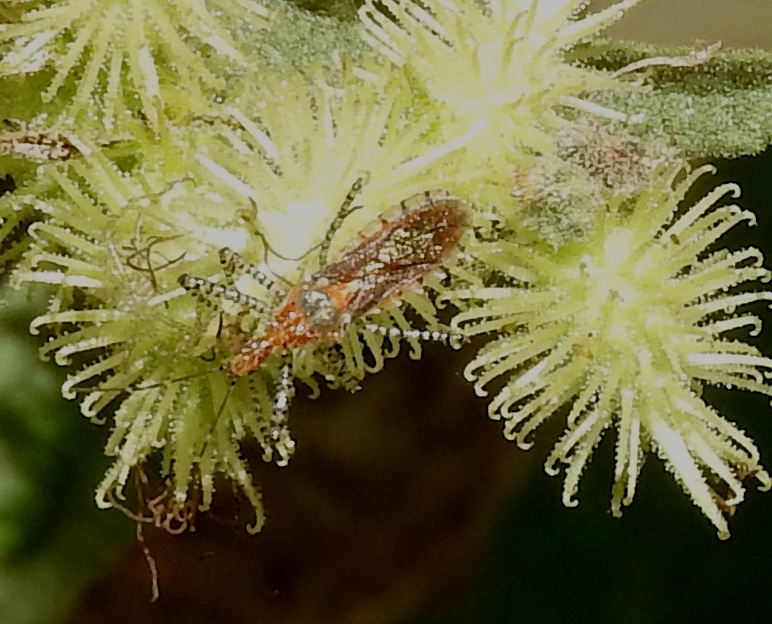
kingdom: Animalia
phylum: Arthropoda
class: Insecta
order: Hemiptera
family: Reduviidae
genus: Pselliopus
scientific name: Pselliopus
